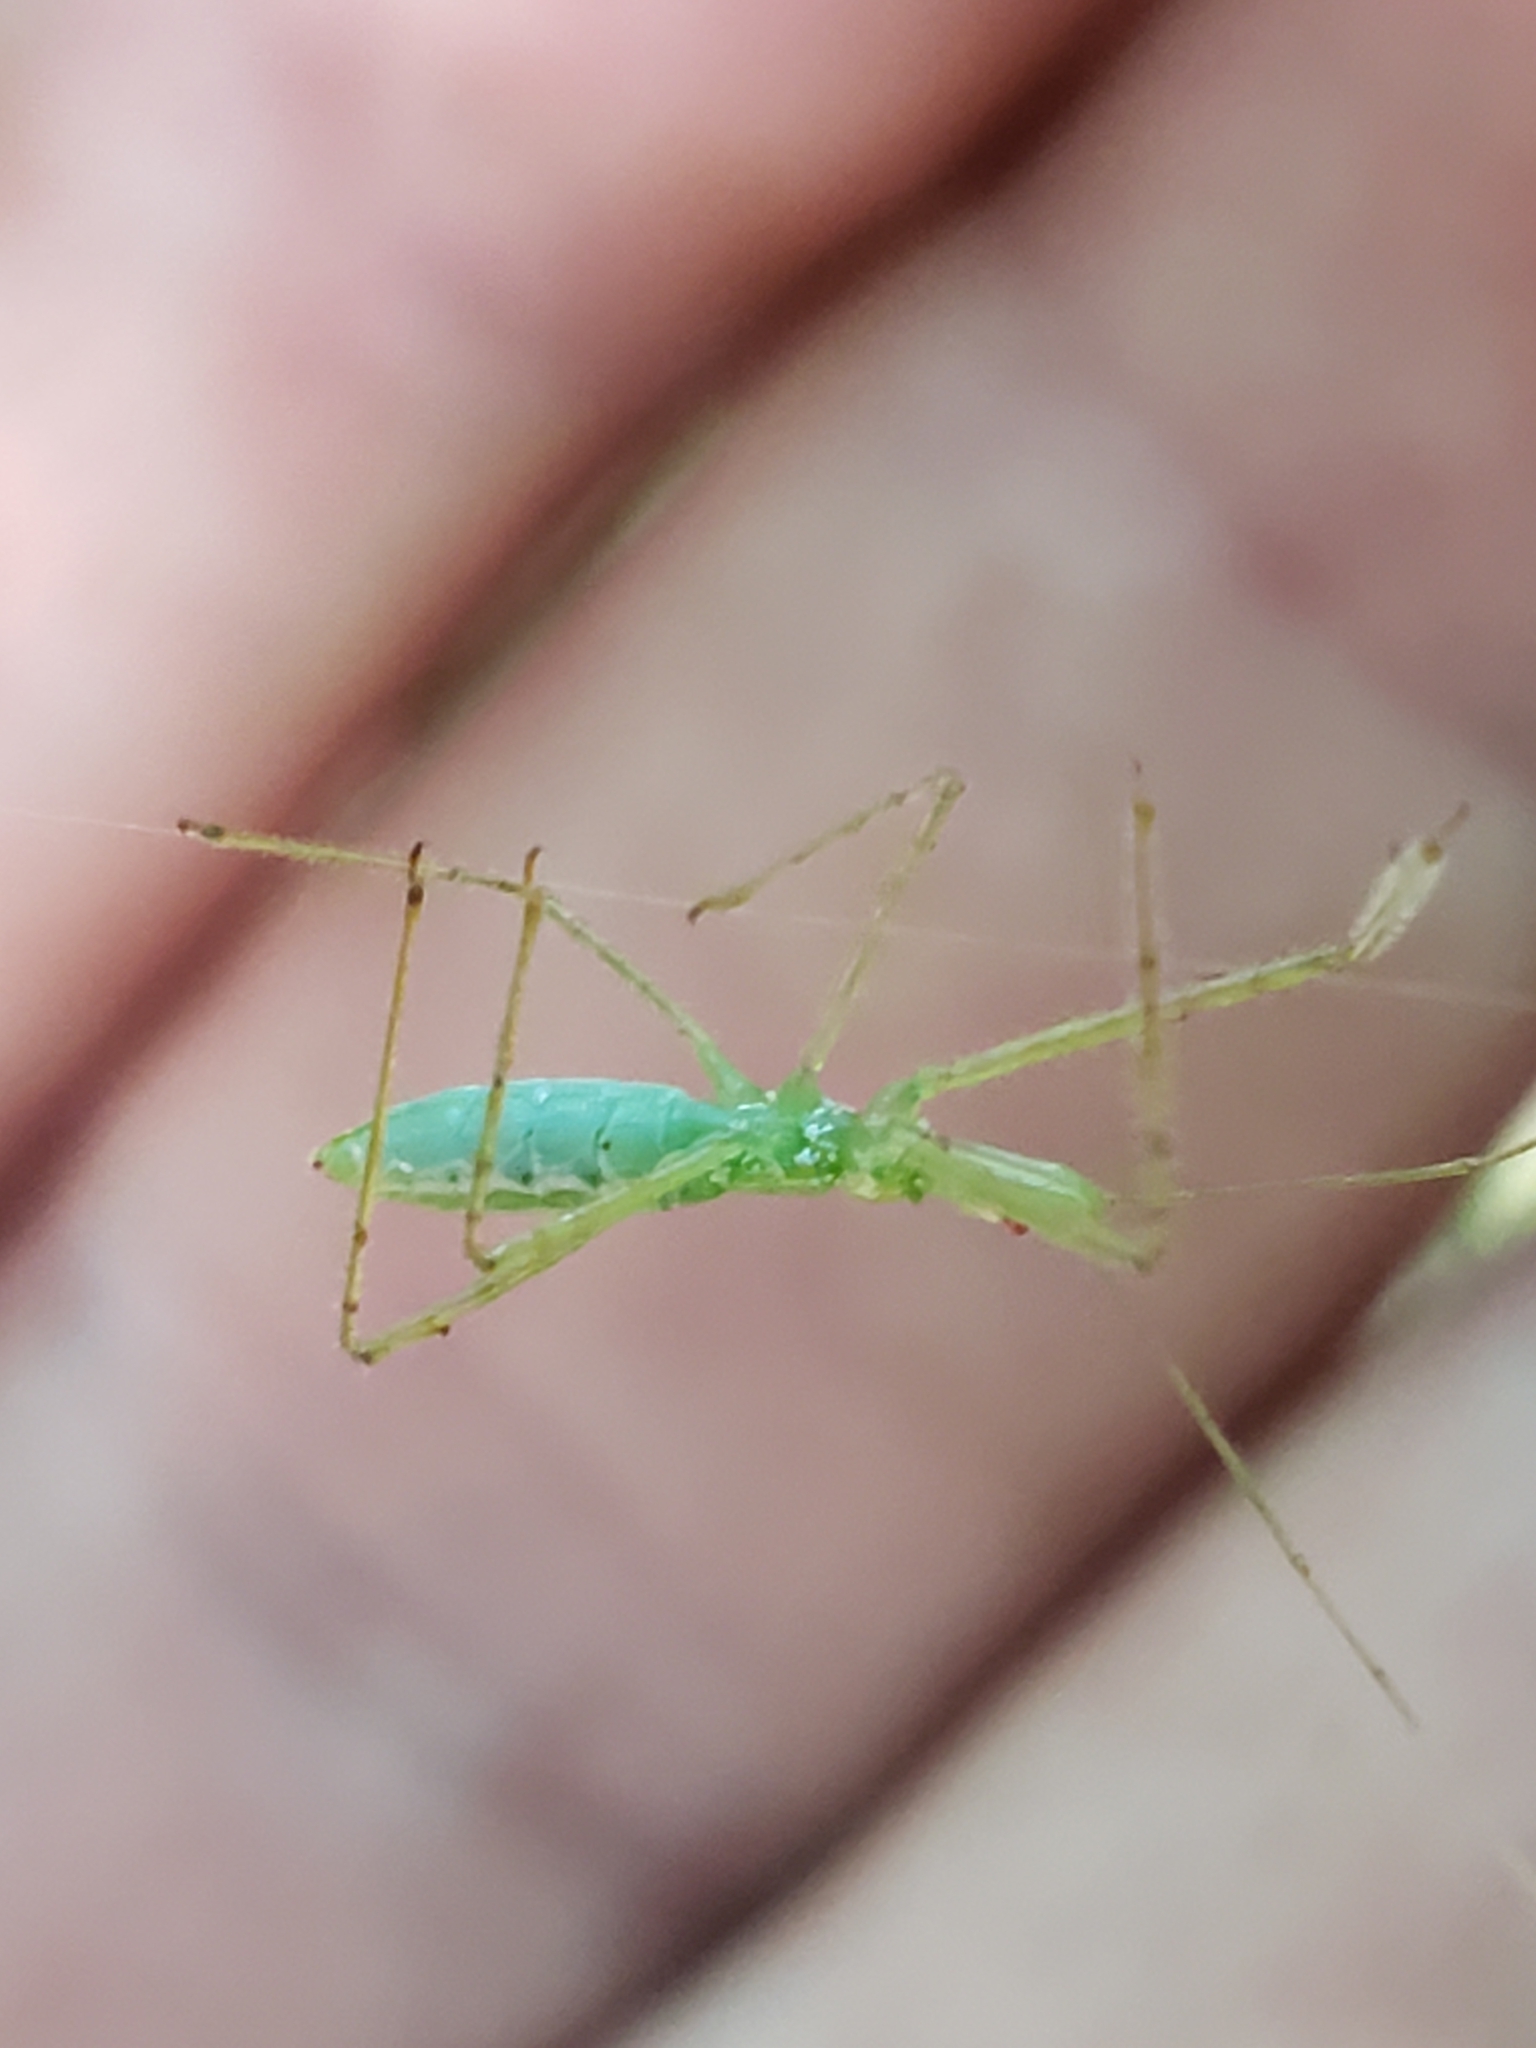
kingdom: Animalia
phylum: Arthropoda
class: Insecta
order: Hemiptera
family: Reduviidae
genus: Zelus
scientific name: Zelus luridus
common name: Pale green assassin bug
